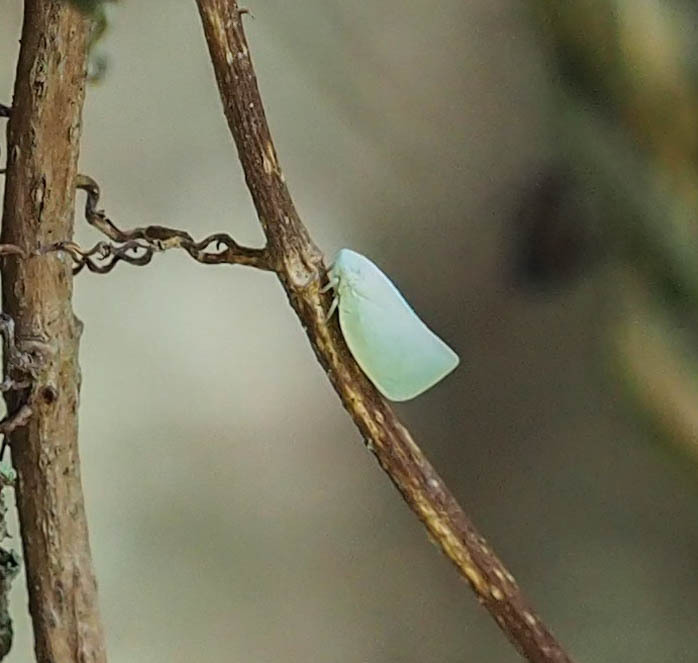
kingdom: Animalia
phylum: Arthropoda
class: Insecta
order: Hemiptera
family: Flatidae
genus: Flatormenis
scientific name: Flatormenis proxima
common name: Northern flatid planthopper
